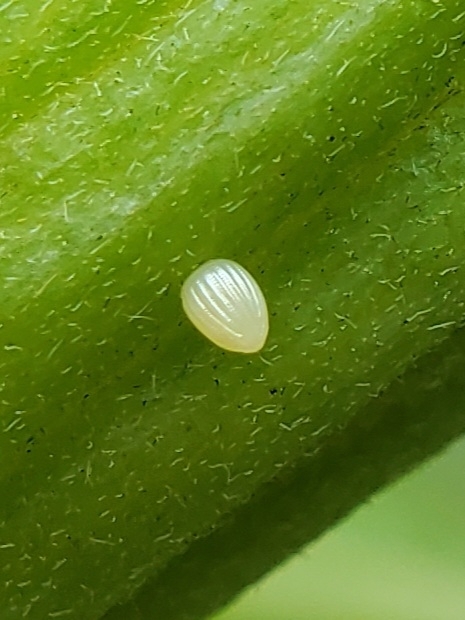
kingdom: Animalia
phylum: Arthropoda
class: Insecta
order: Lepidoptera
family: Nymphalidae
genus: Danaus
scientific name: Danaus plexippus
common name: Monarch
